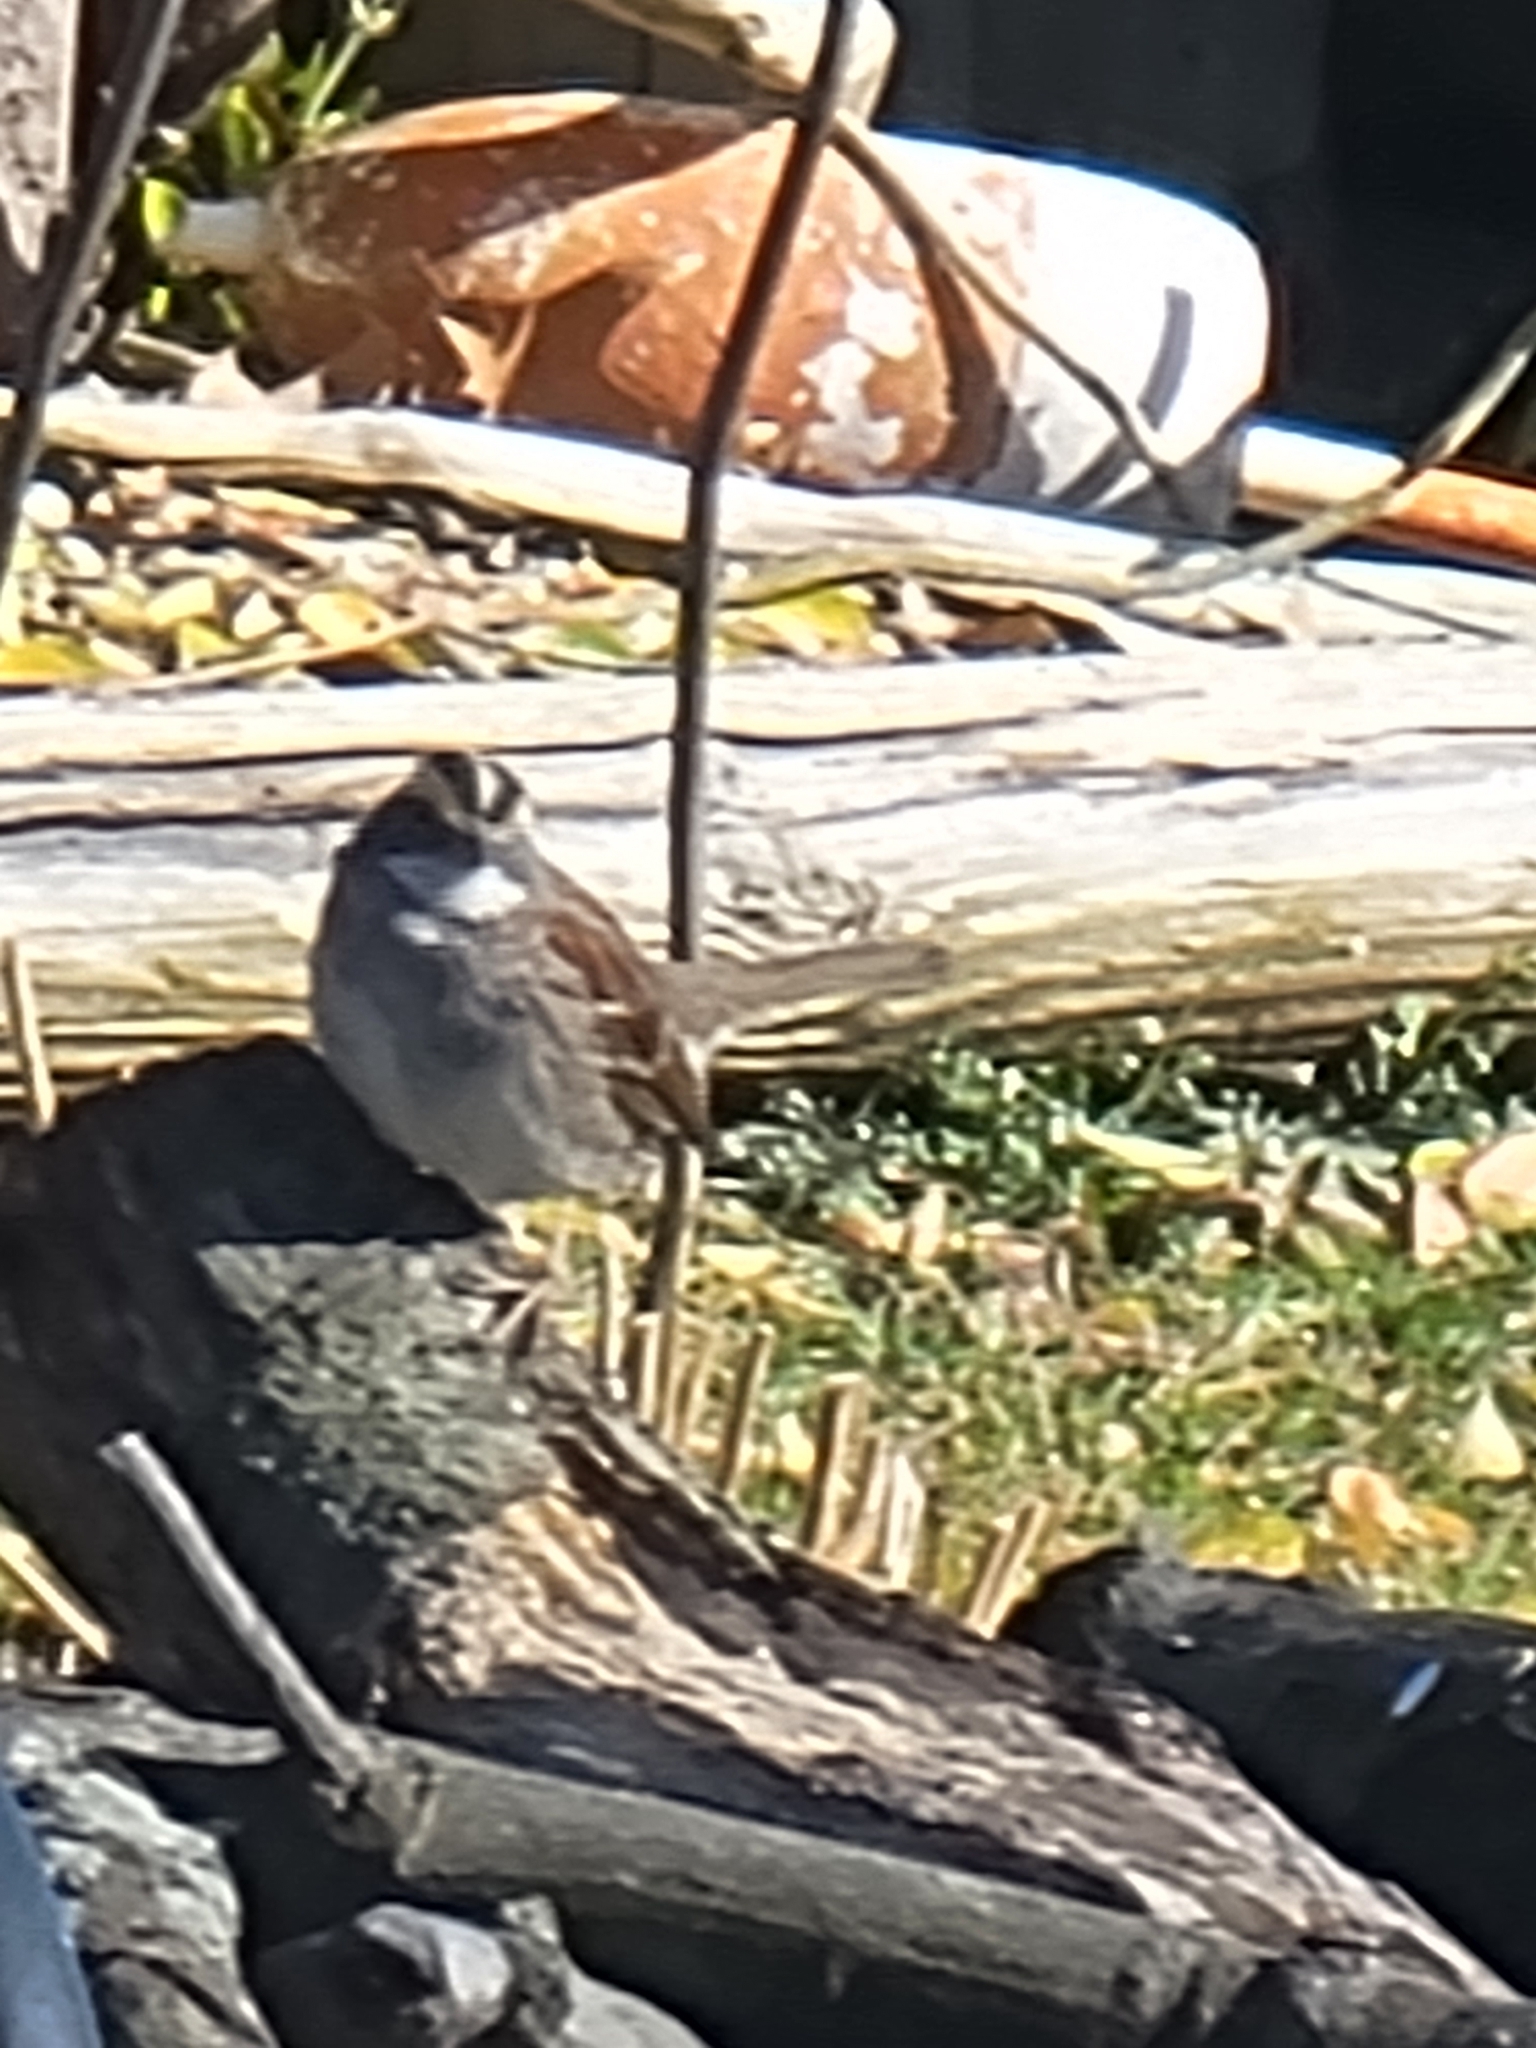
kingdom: Animalia
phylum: Chordata
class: Aves
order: Passeriformes
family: Passerellidae
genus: Zonotrichia
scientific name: Zonotrichia albicollis
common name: White-throated sparrow
